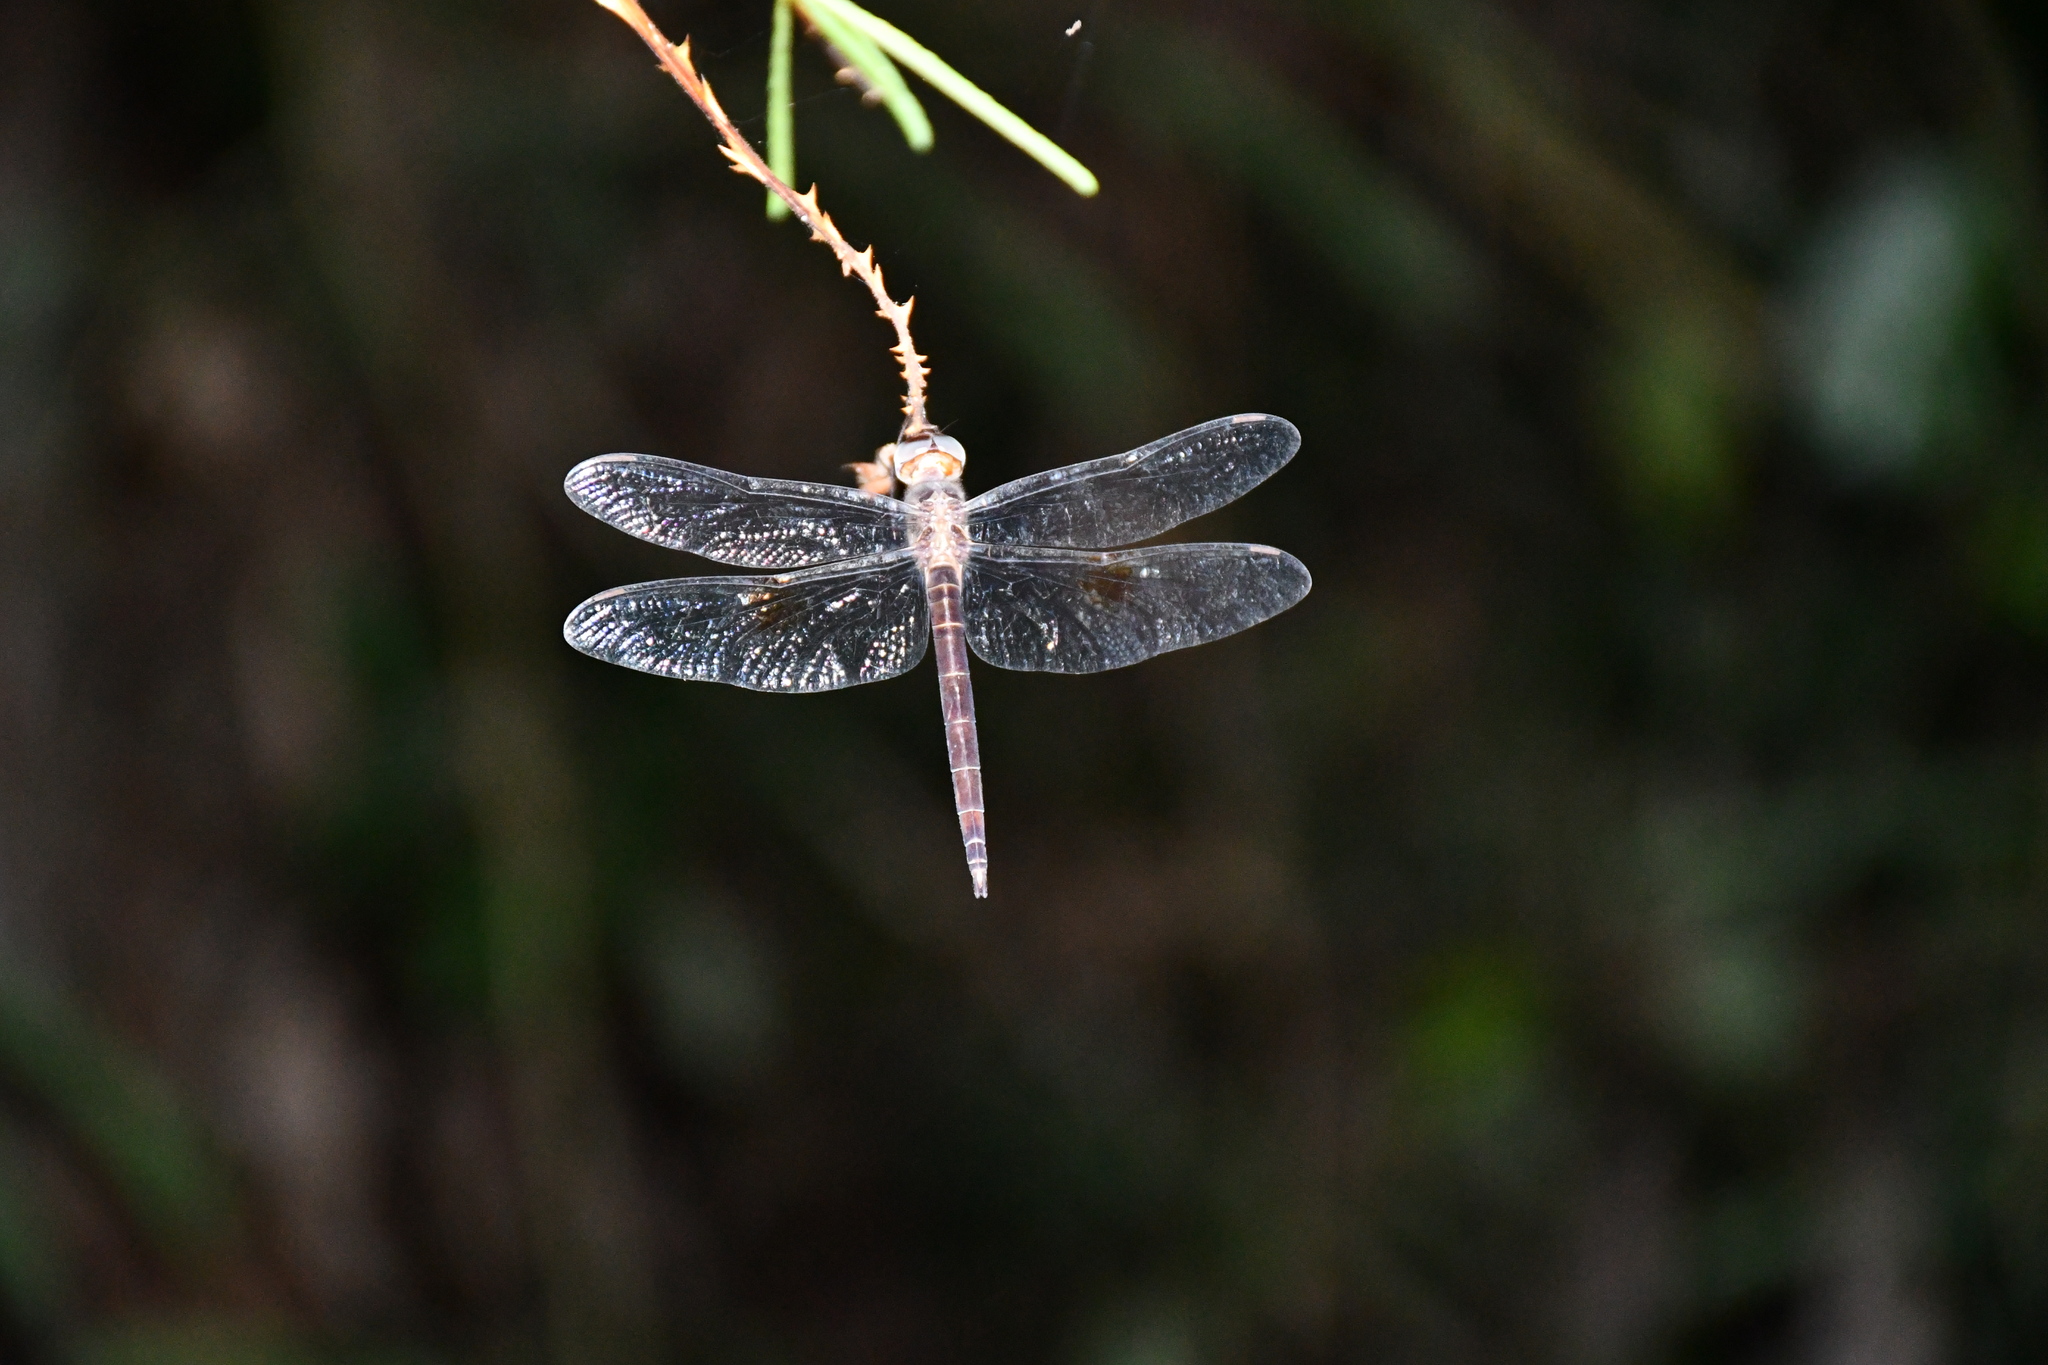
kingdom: Animalia
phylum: Arthropoda
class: Insecta
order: Odonata
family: Libellulidae
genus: Tholymis
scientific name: Tholymis citrina
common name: Evening skimmer
